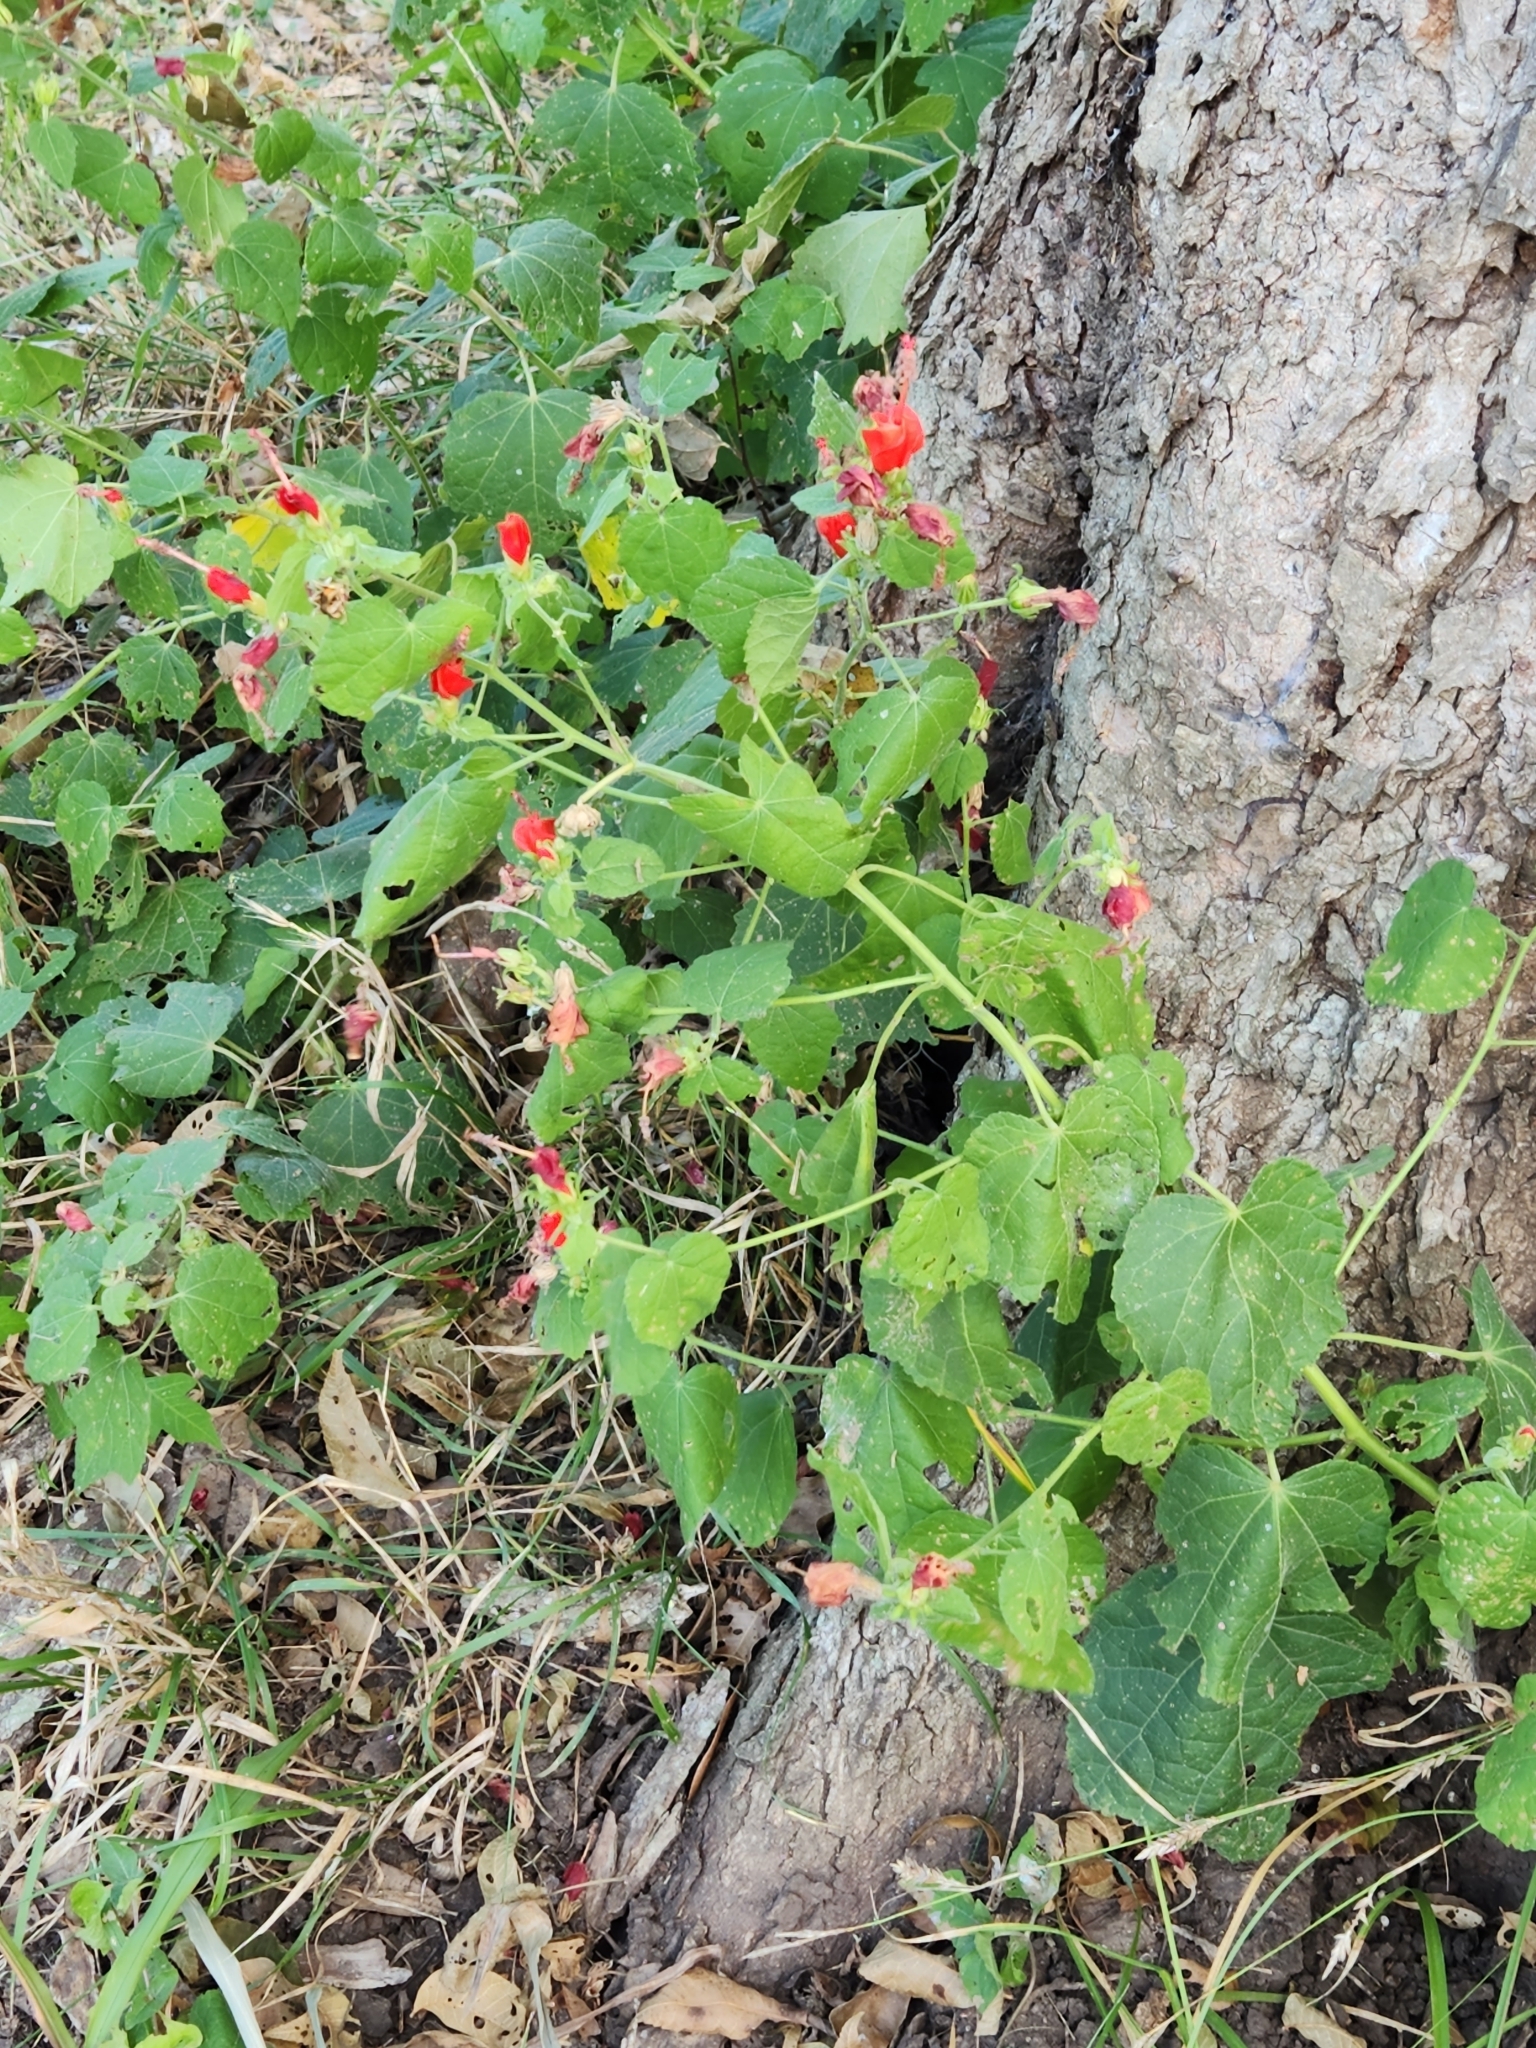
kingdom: Plantae
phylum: Tracheophyta
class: Magnoliopsida
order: Malvales
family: Malvaceae
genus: Malvaviscus
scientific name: Malvaviscus arboreus
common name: Wax mallow
